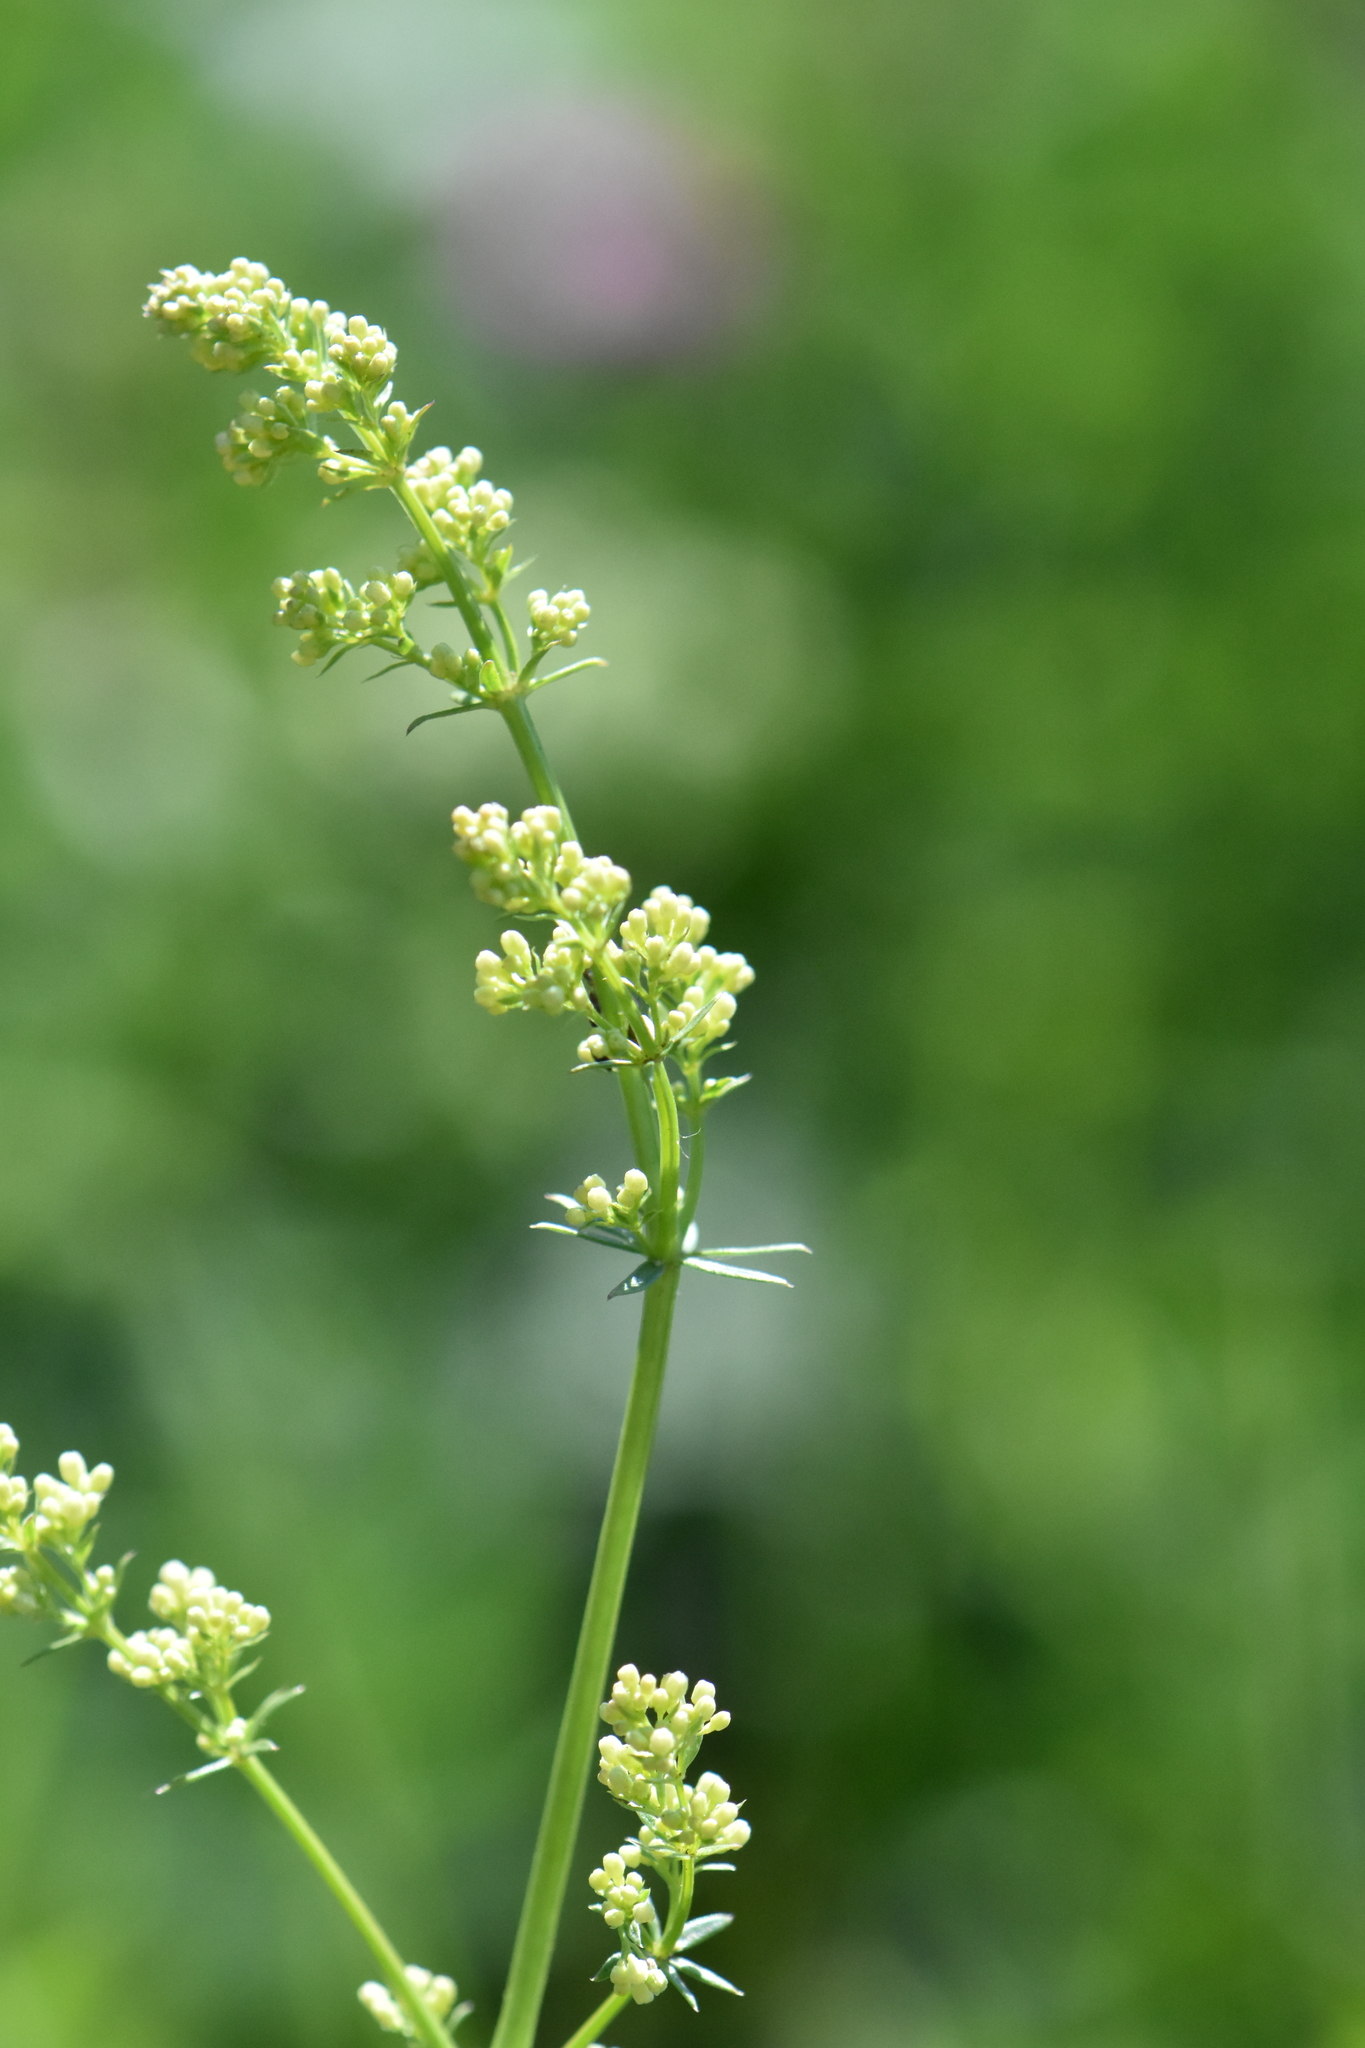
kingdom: Plantae
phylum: Tracheophyta
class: Magnoliopsida
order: Gentianales
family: Rubiaceae
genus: Galium
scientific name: Galium mollugo
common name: Hedge bedstraw
